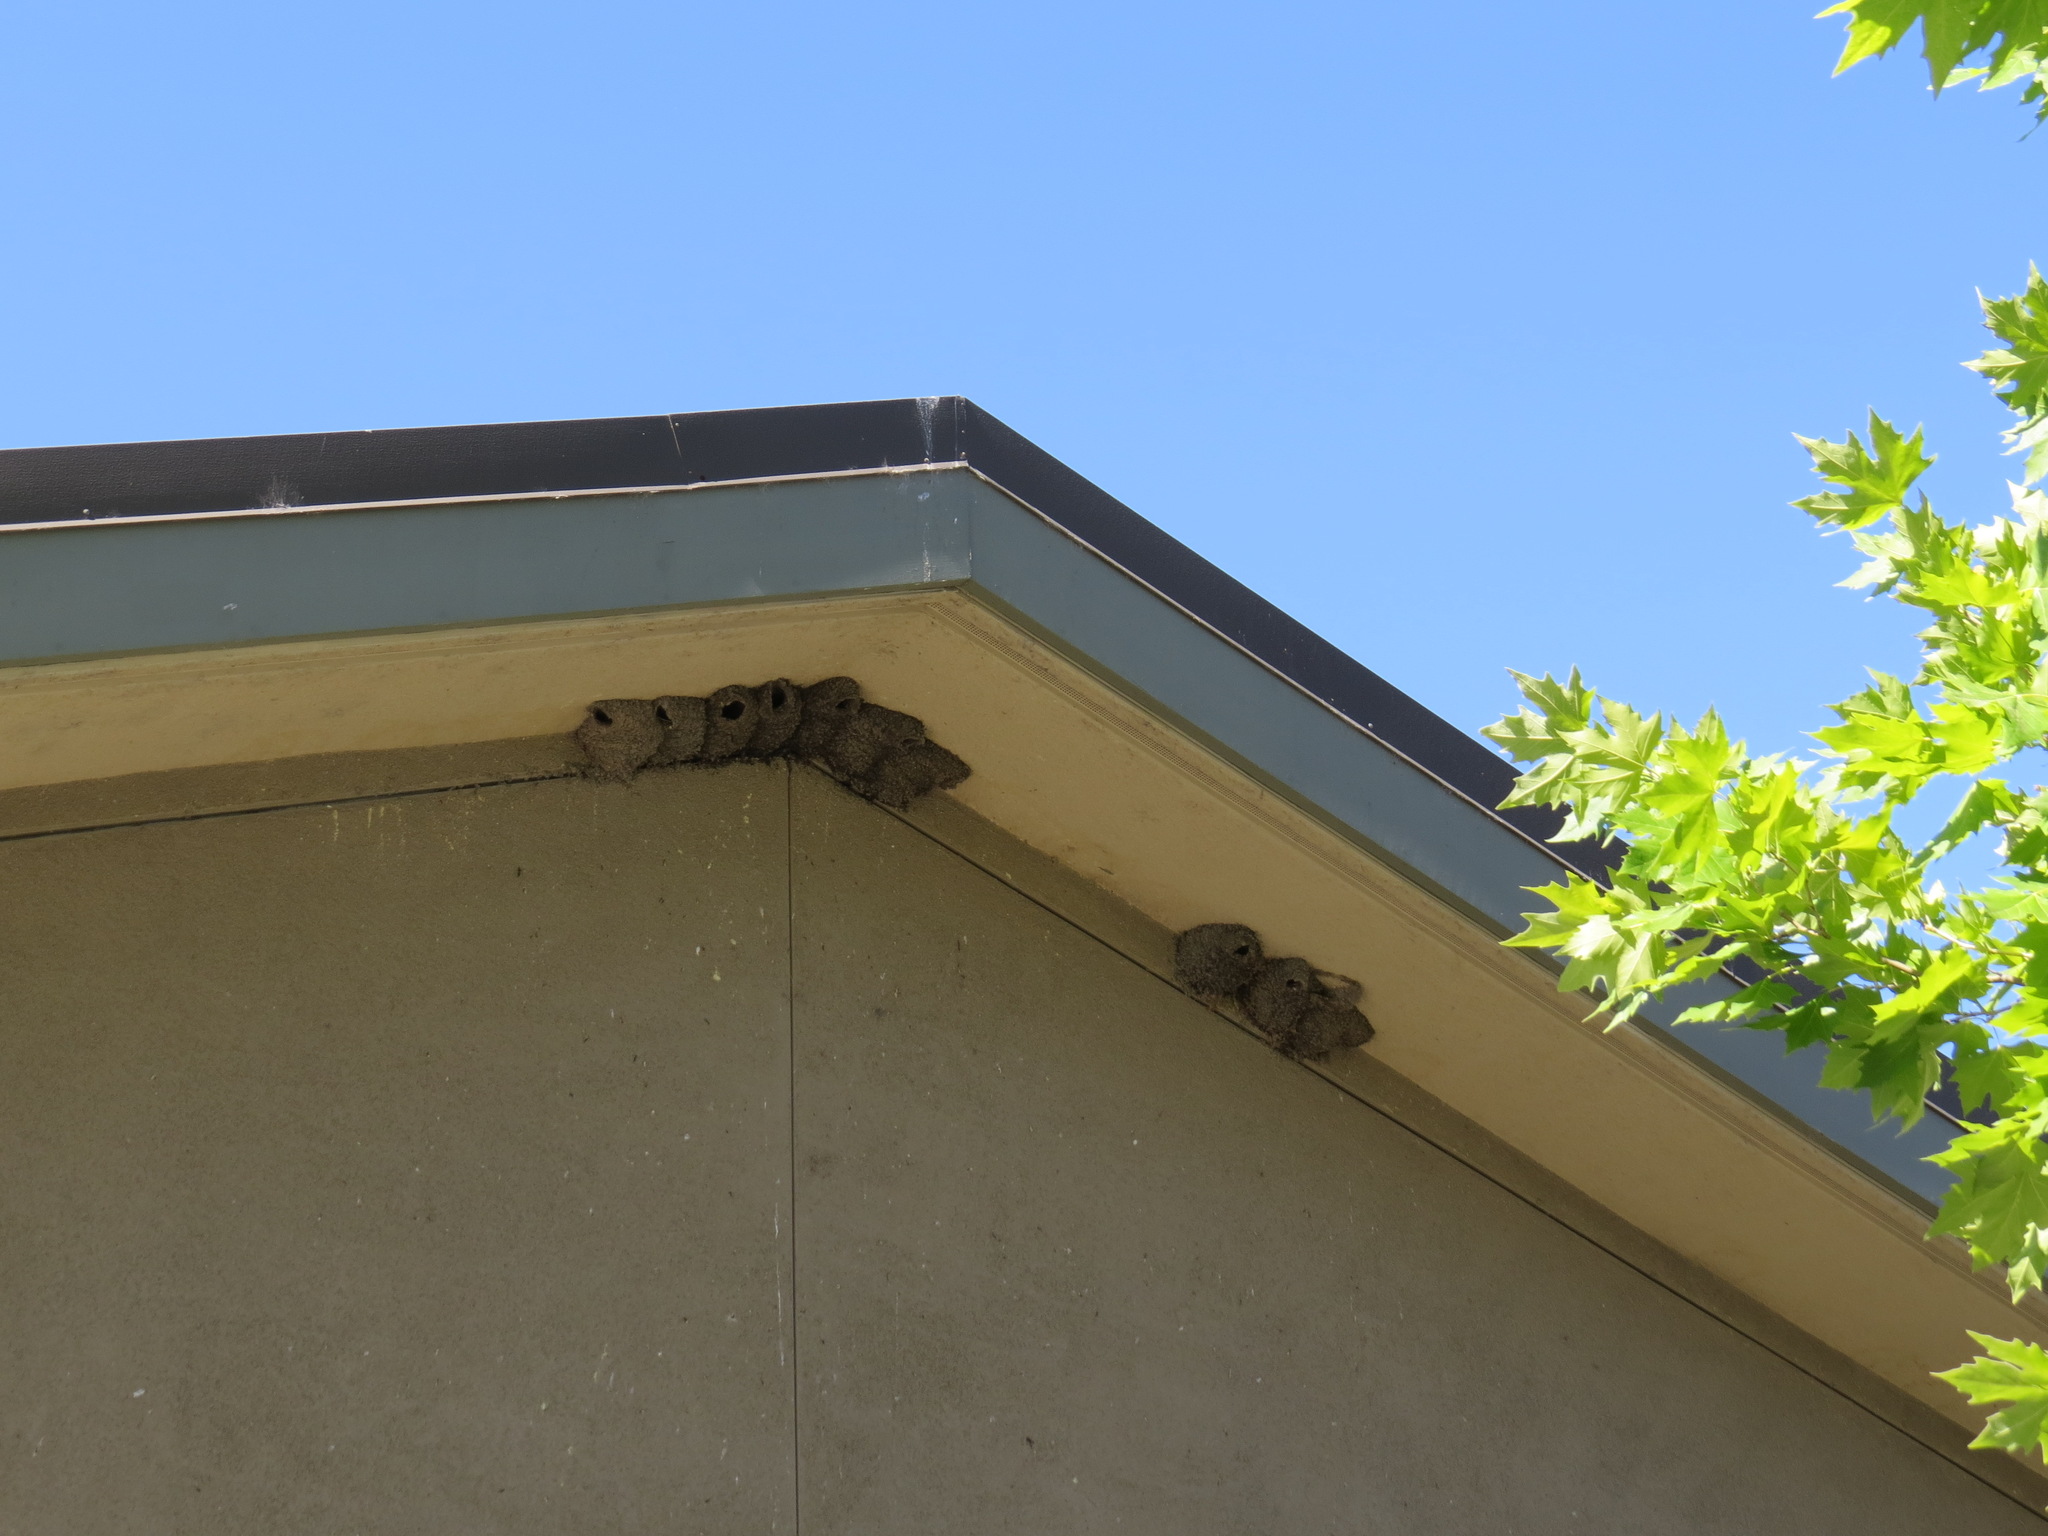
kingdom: Animalia
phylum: Chordata
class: Aves
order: Passeriformes
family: Hirundinidae
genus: Petrochelidon
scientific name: Petrochelidon pyrrhonota
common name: American cliff swallow
